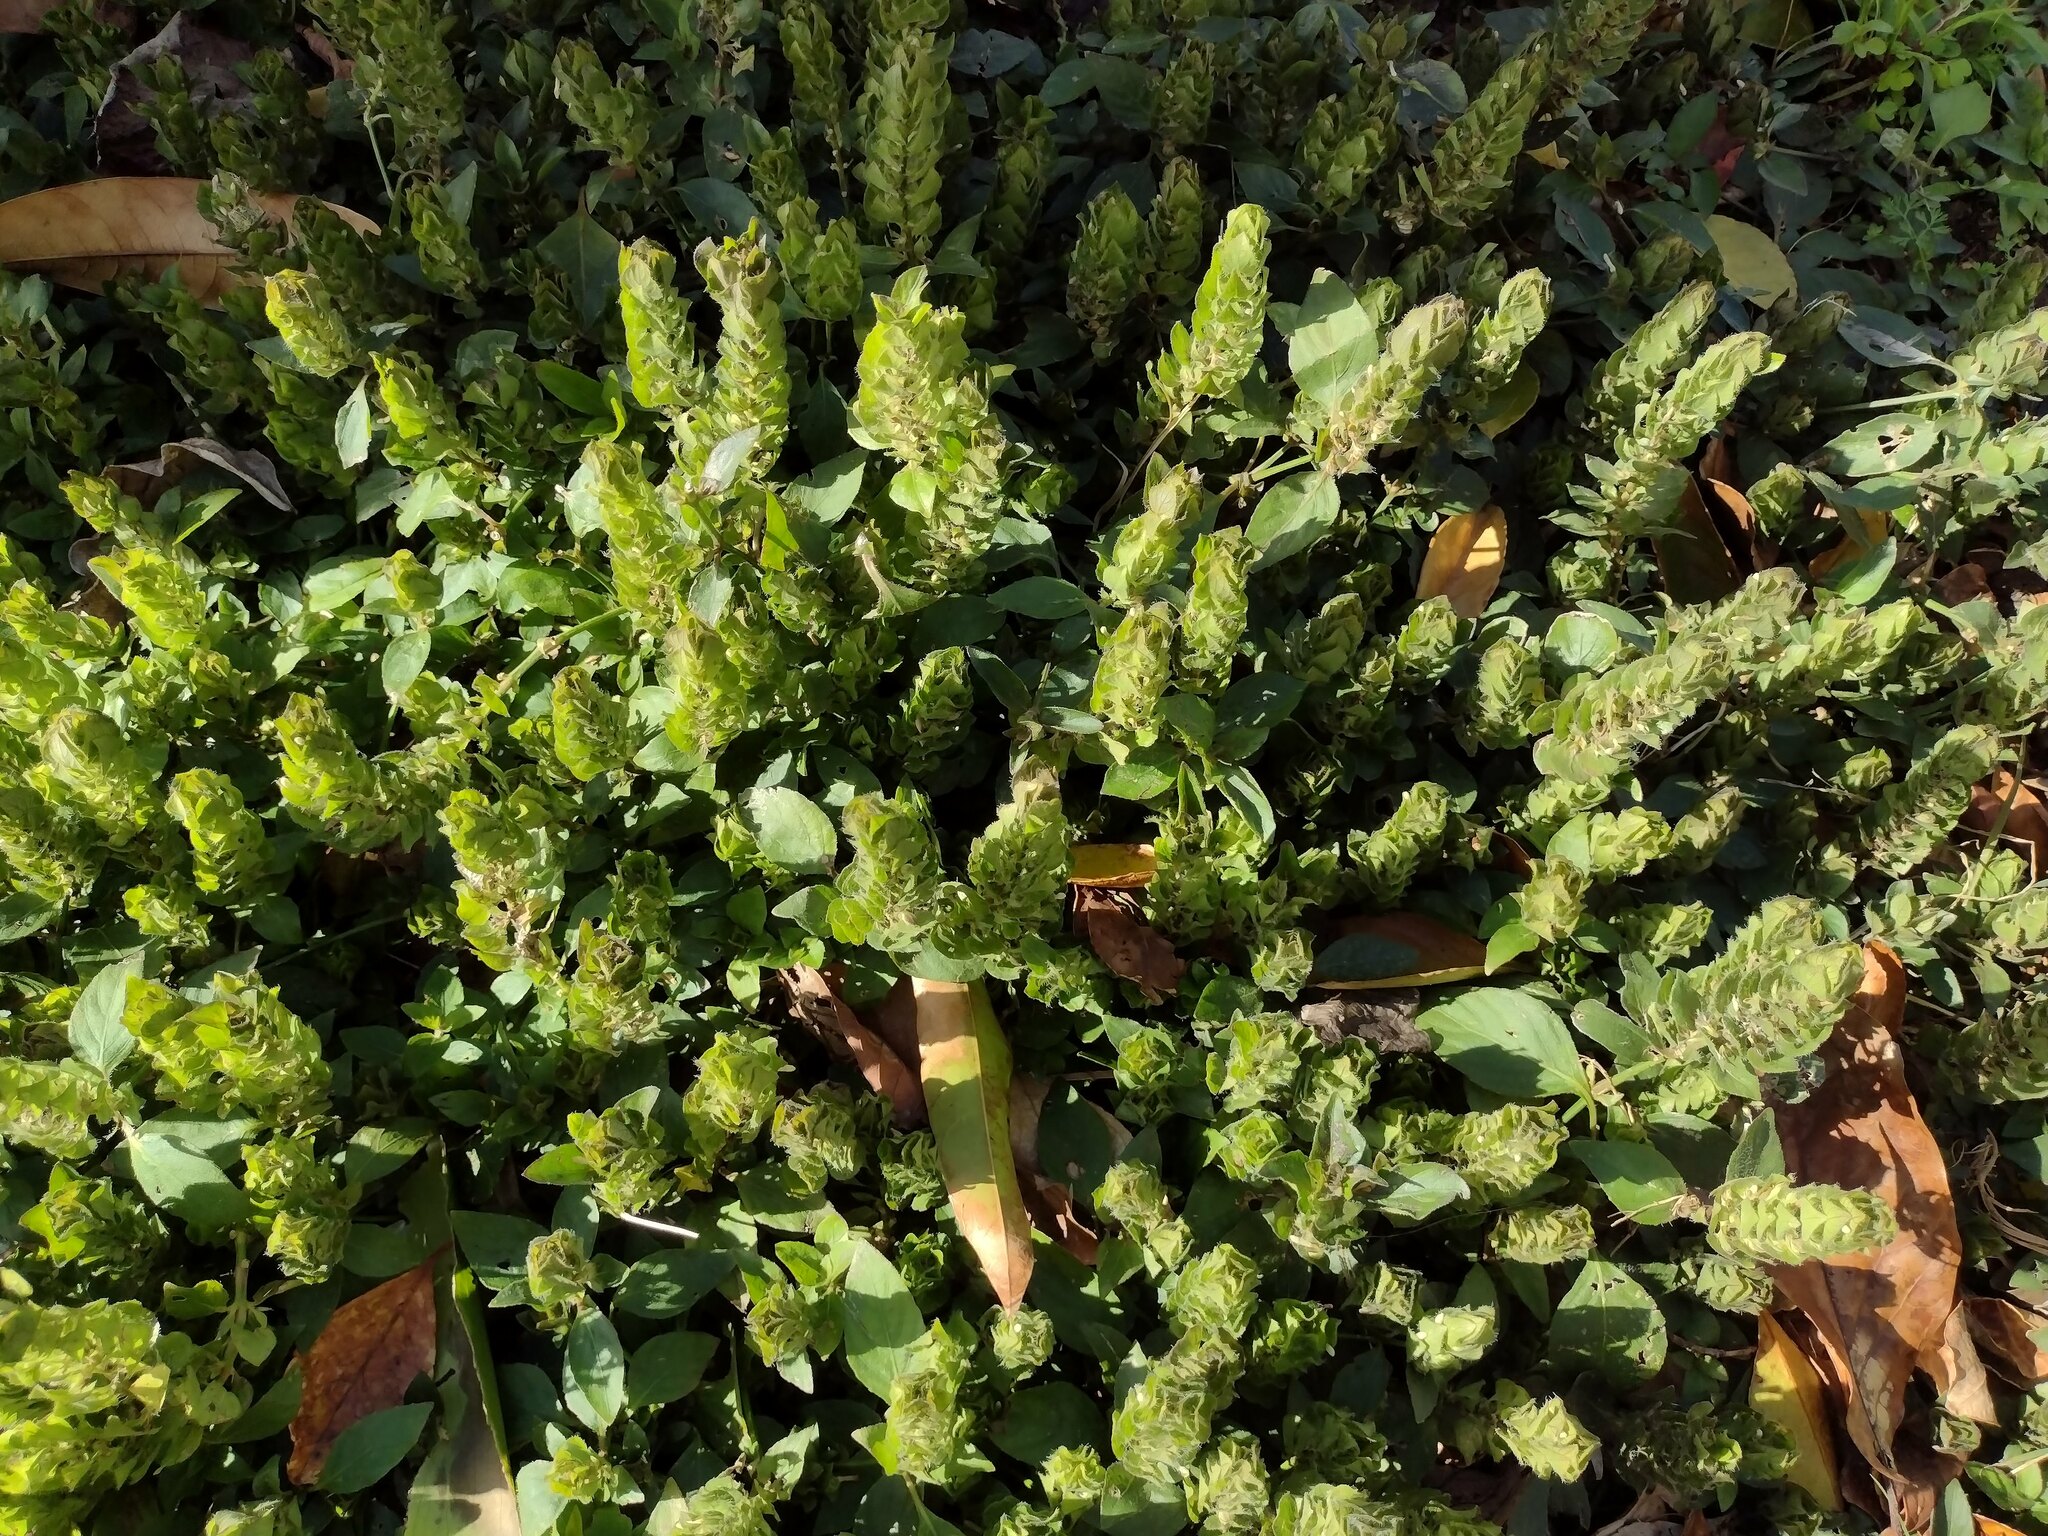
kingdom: Plantae
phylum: Tracheophyta
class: Magnoliopsida
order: Lamiales
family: Acanthaceae
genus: Ruellia
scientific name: Ruellia blechum
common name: Browne's blechum
